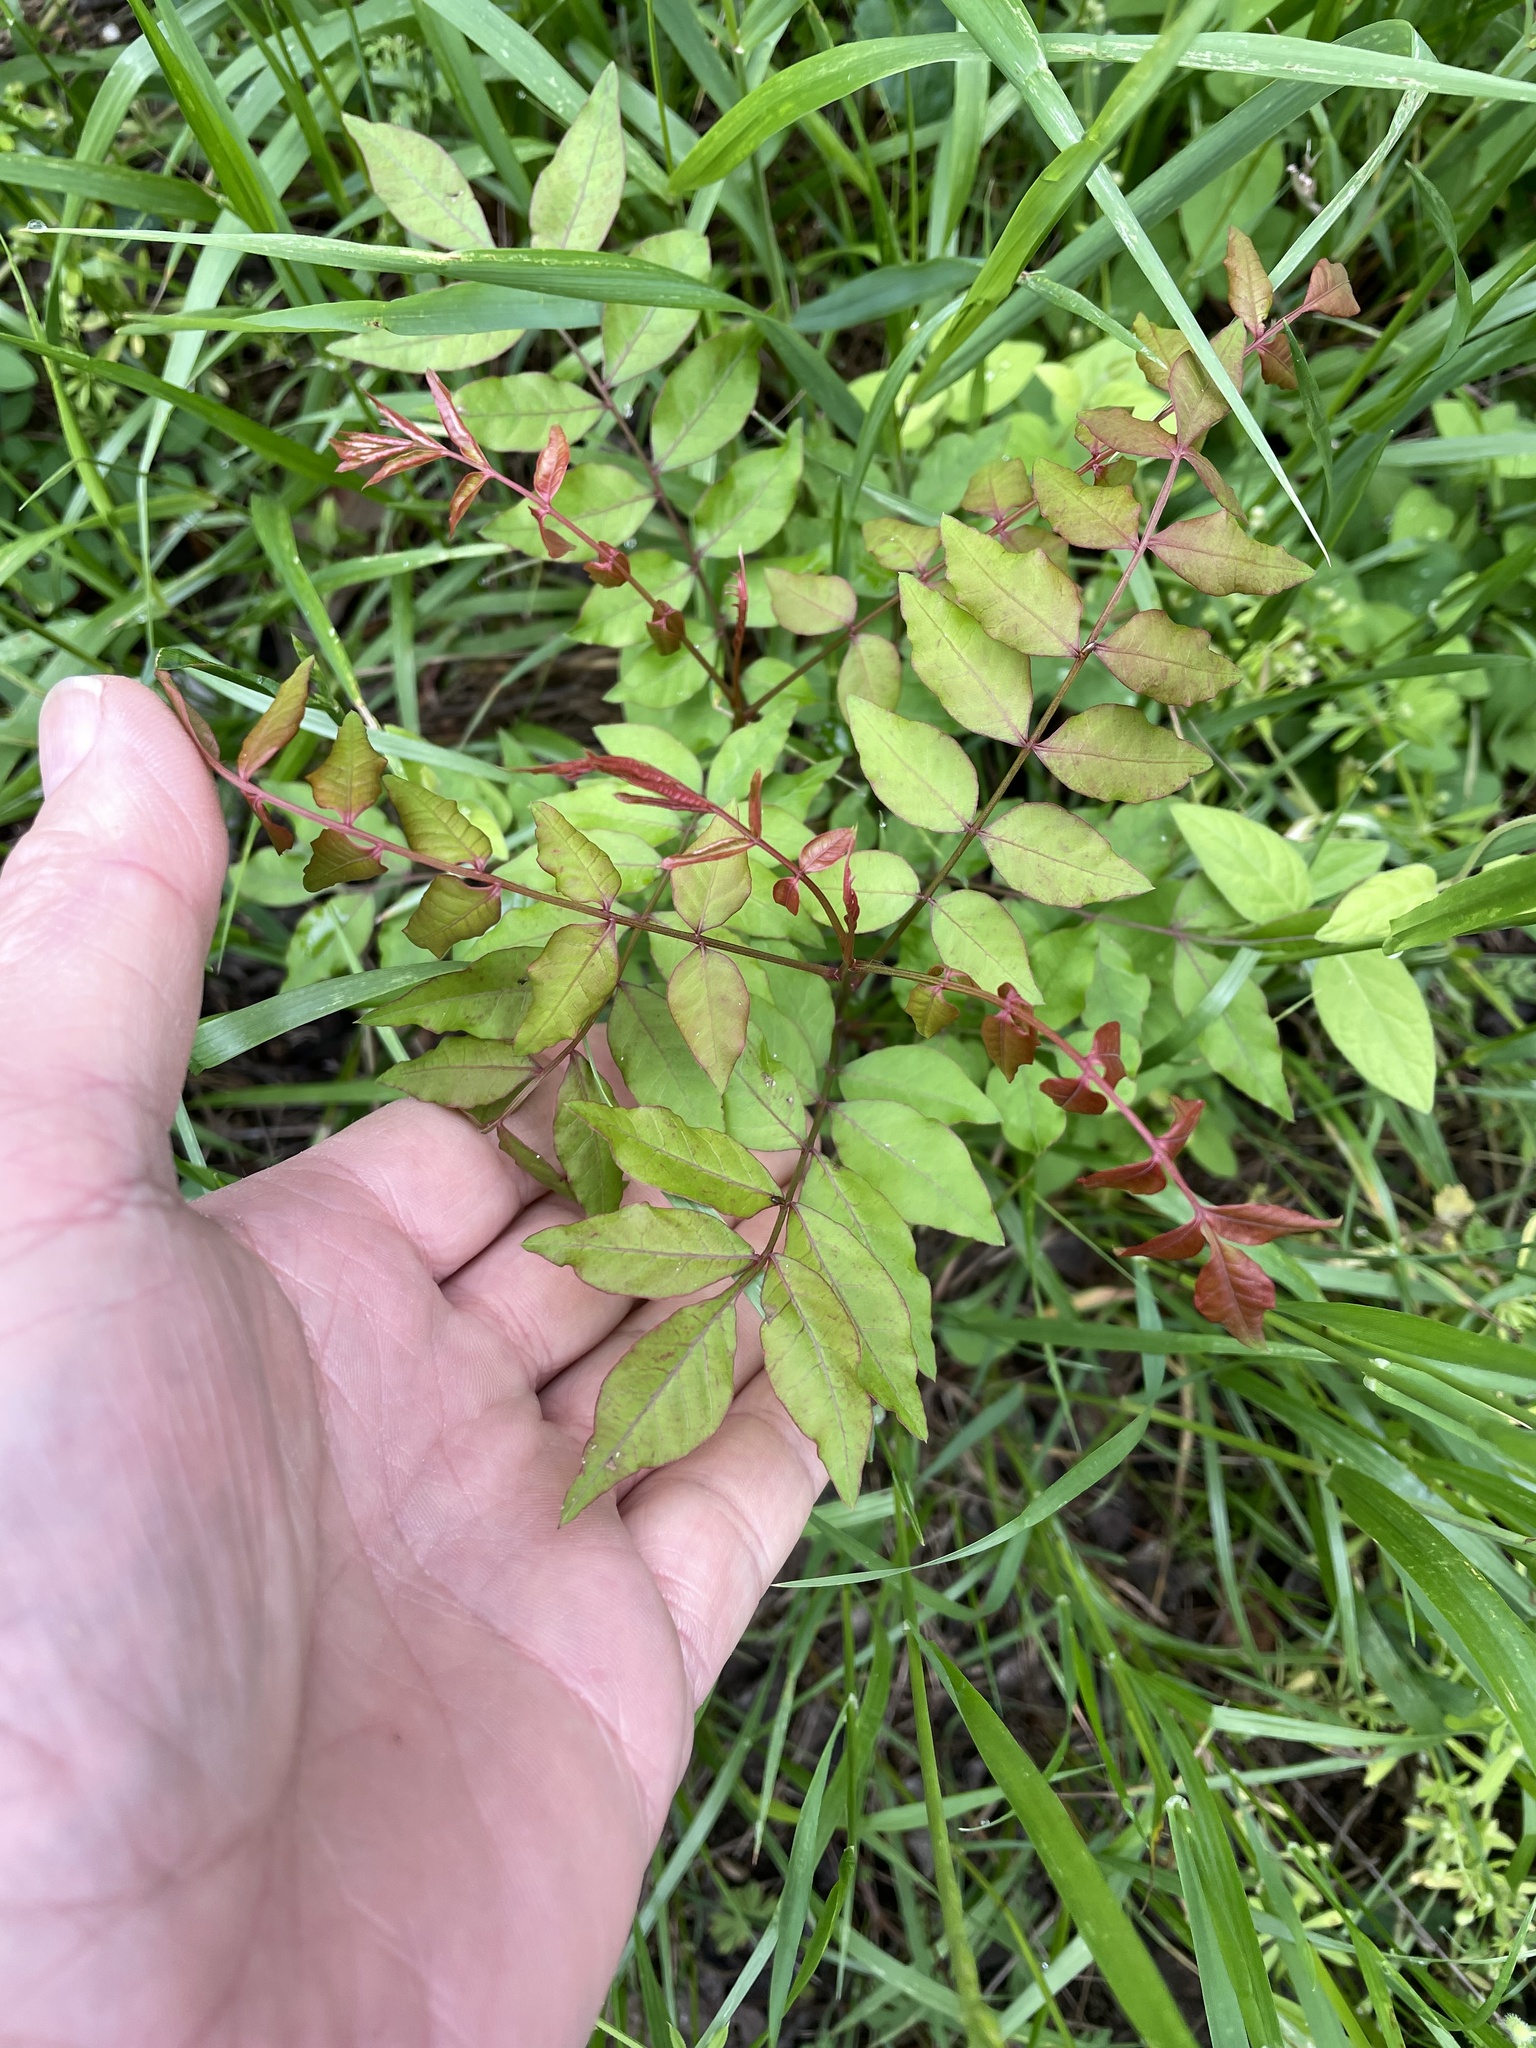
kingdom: Plantae
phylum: Tracheophyta
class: Magnoliopsida
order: Sapindales
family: Anacardiaceae
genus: Pistacia
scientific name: Pistacia chinensis
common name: Chinese pistache
